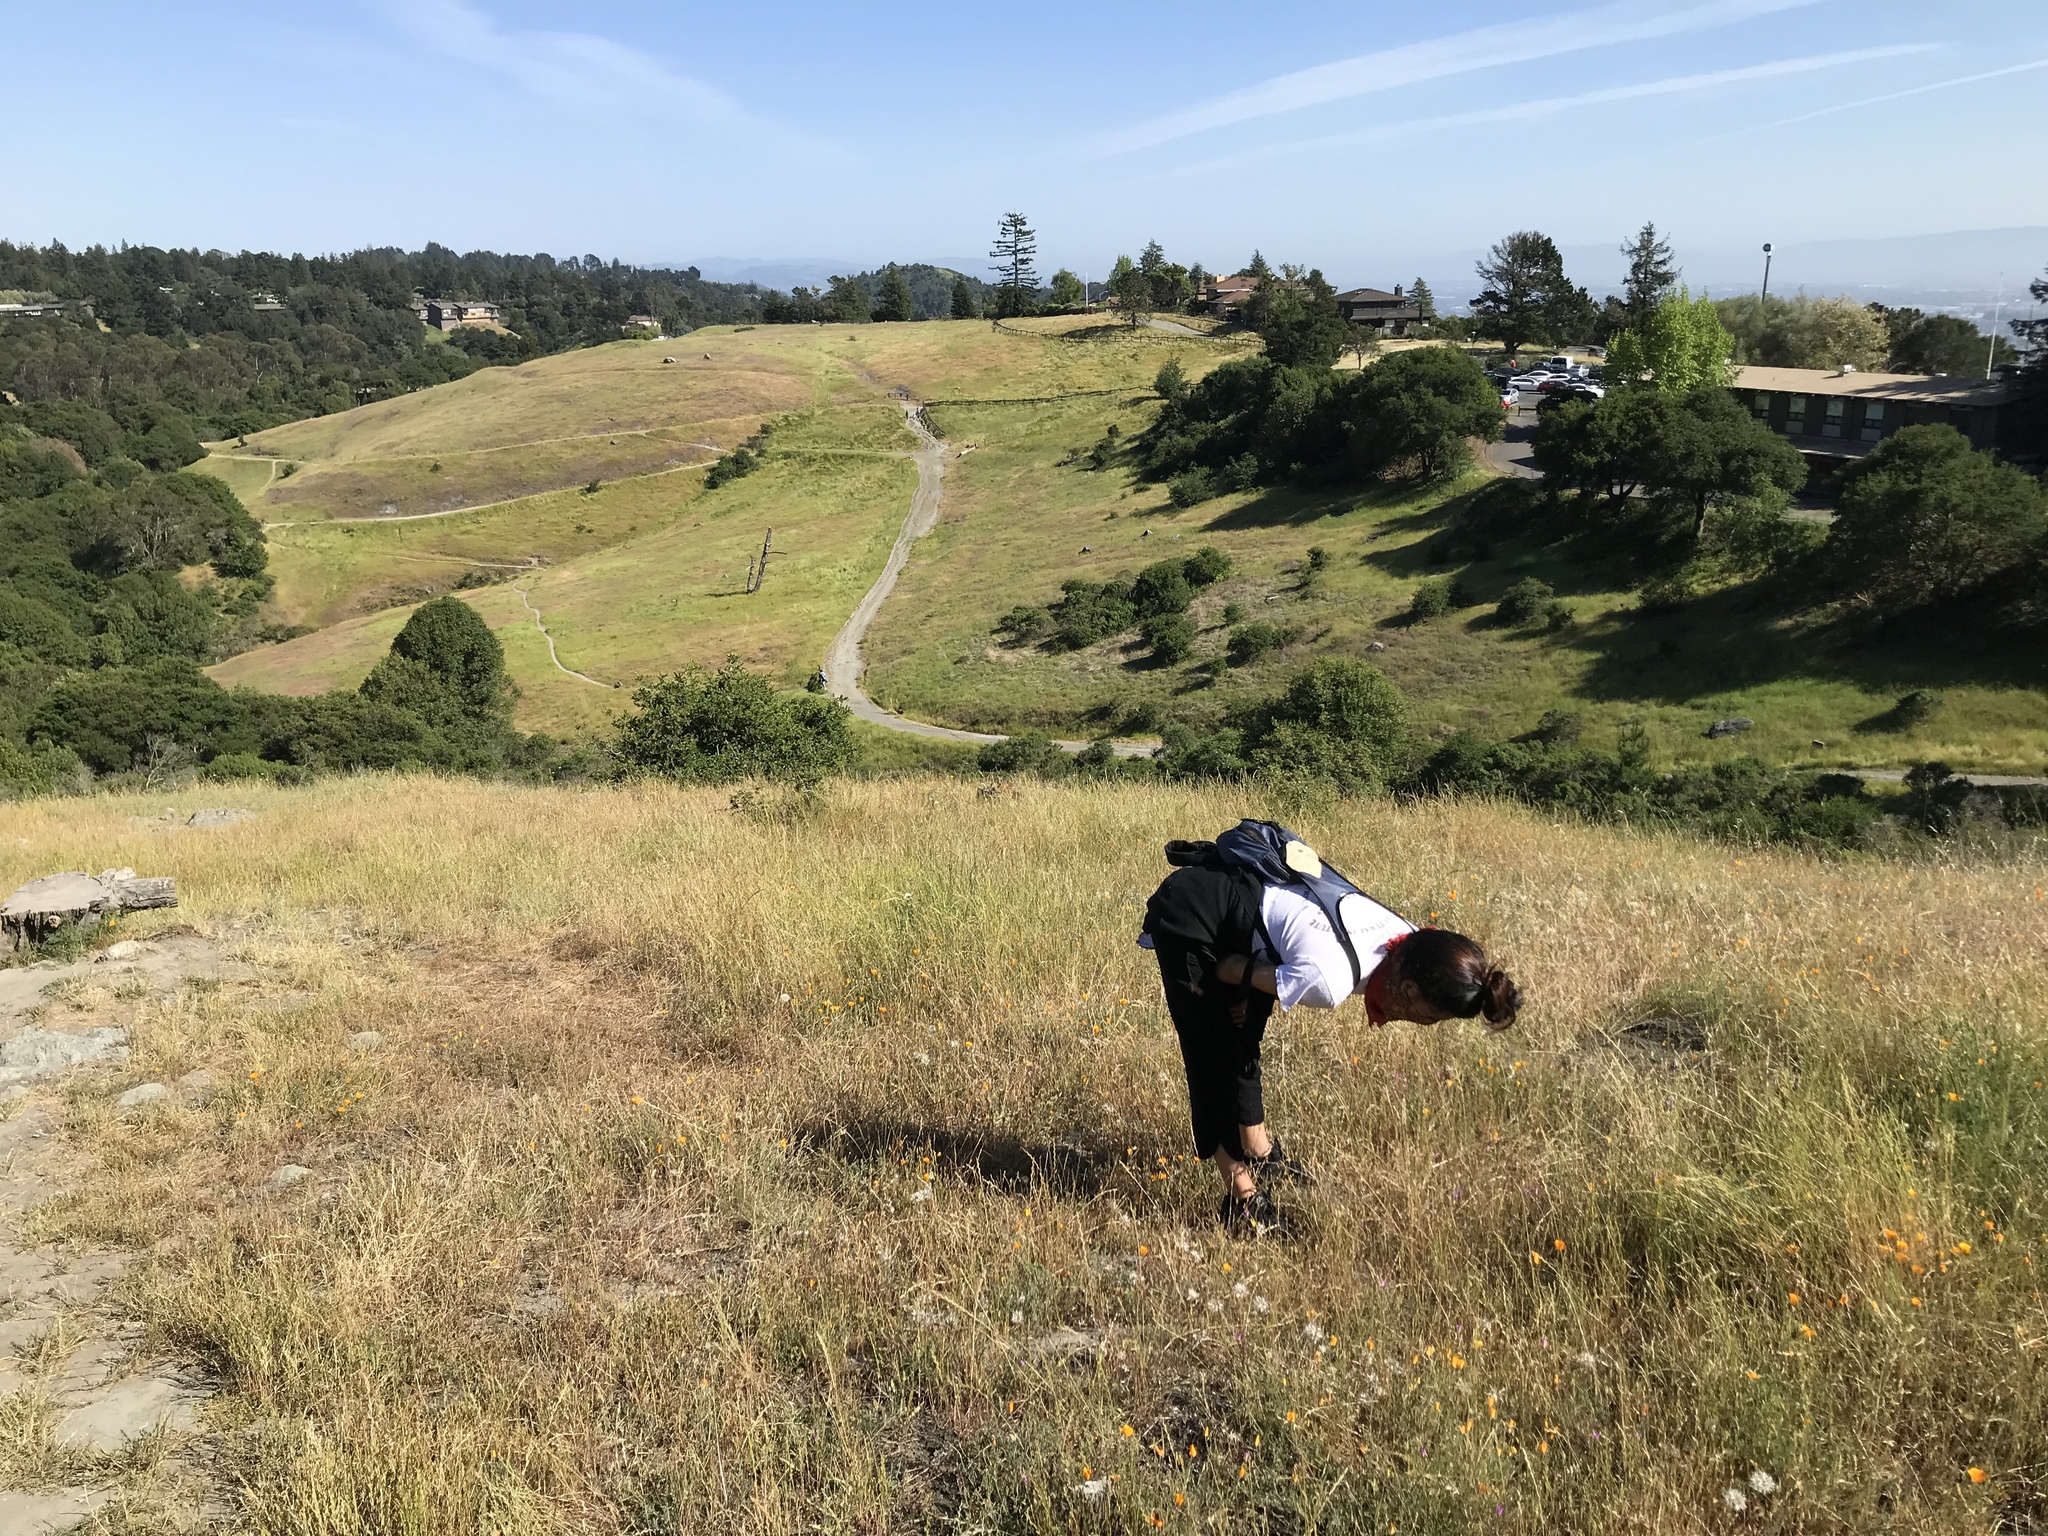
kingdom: Plantae
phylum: Tracheophyta
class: Magnoliopsida
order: Myrtales
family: Onagraceae
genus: Clarkia
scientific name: Clarkia franciscana
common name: Presidio clarkia
